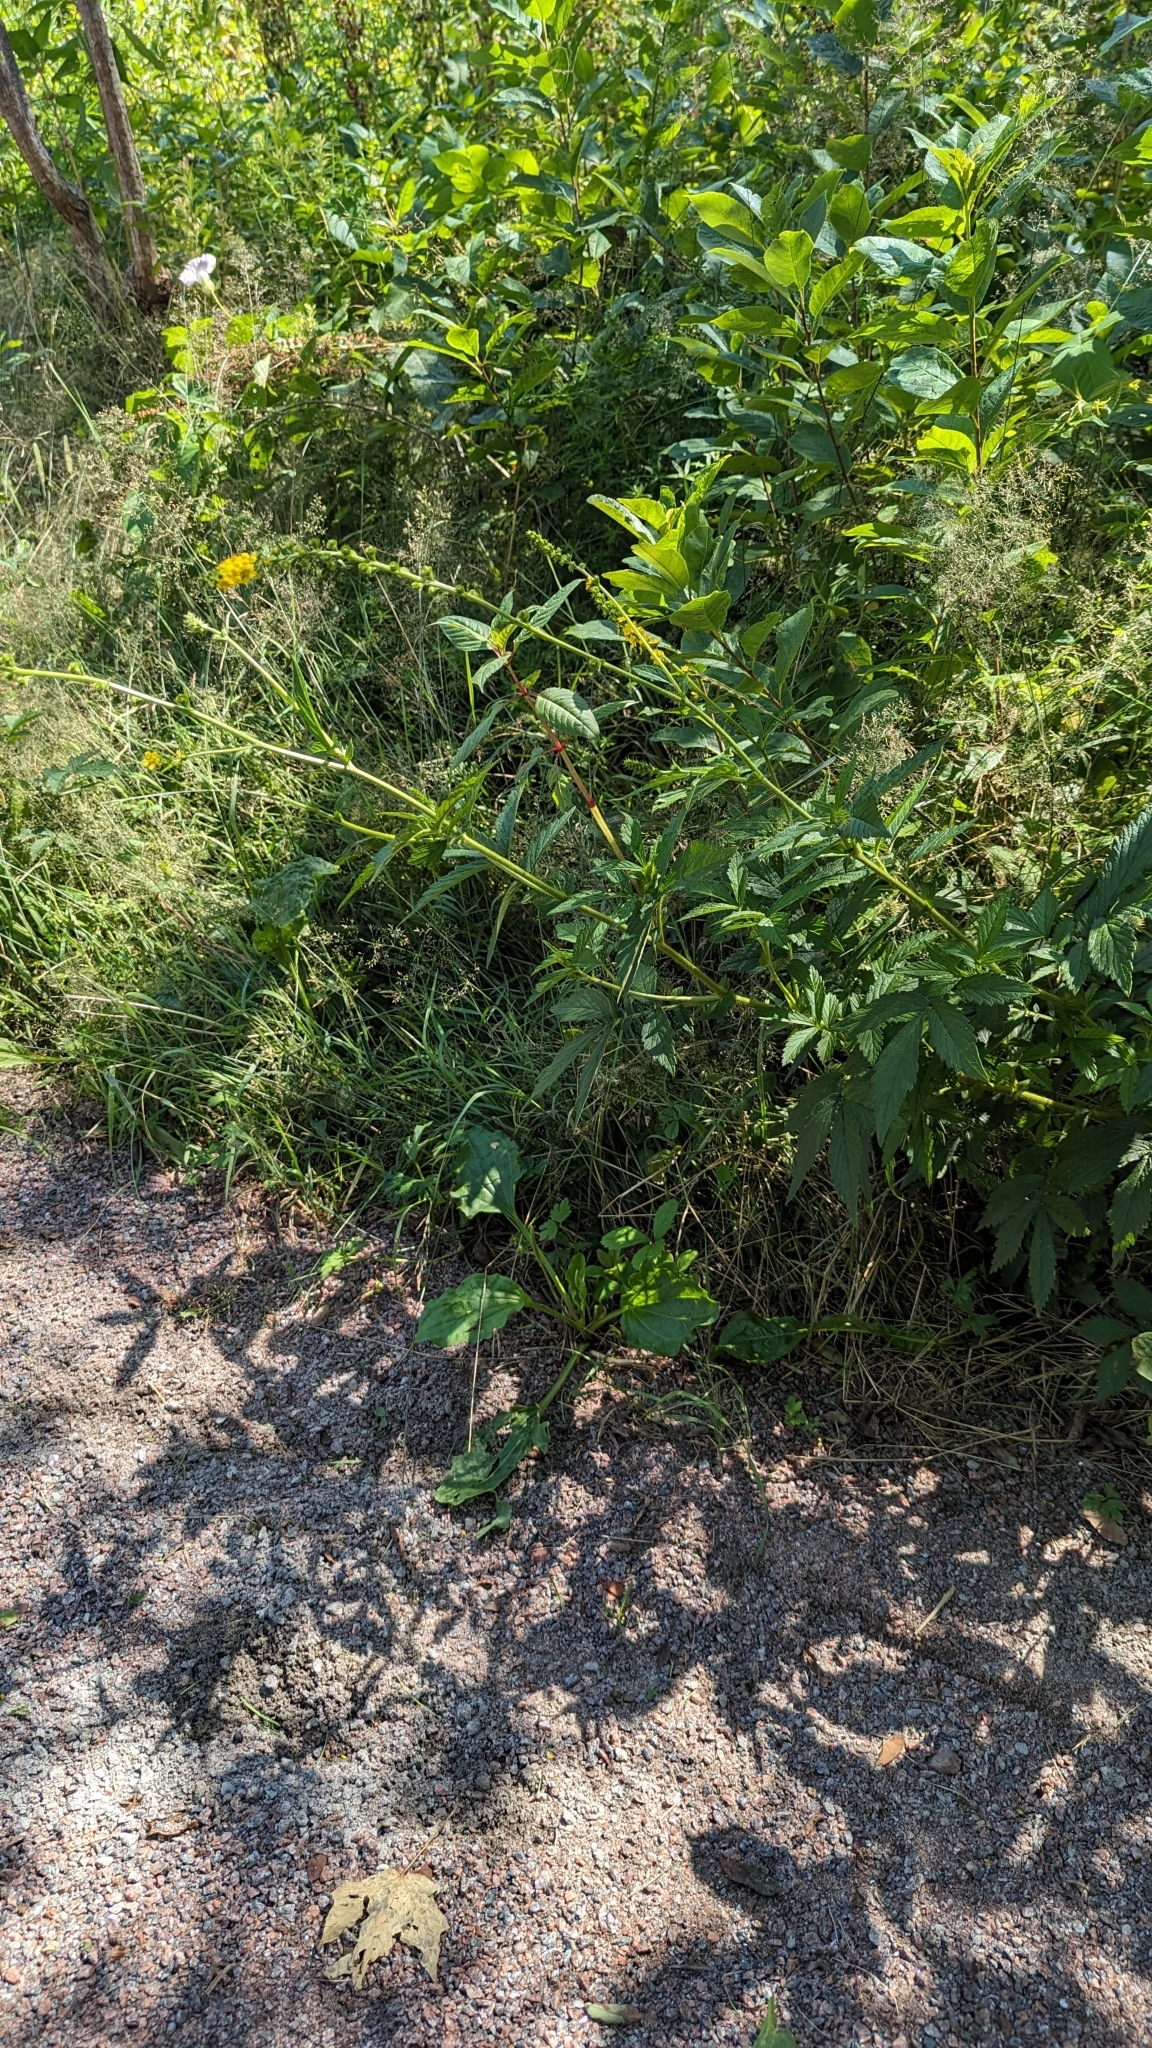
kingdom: Plantae
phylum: Tracheophyta
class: Magnoliopsida
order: Rosales
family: Rosaceae
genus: Agrimonia
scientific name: Agrimonia striata
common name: Britton's agrimony
